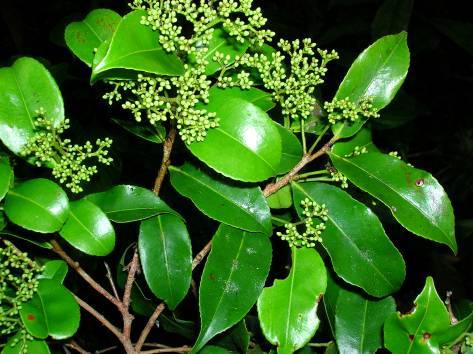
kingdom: Plantae
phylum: Tracheophyta
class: Magnoliopsida
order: Malpighiales
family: Humiriaceae
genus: Humiriastrum
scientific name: Humiriastrum diguense
